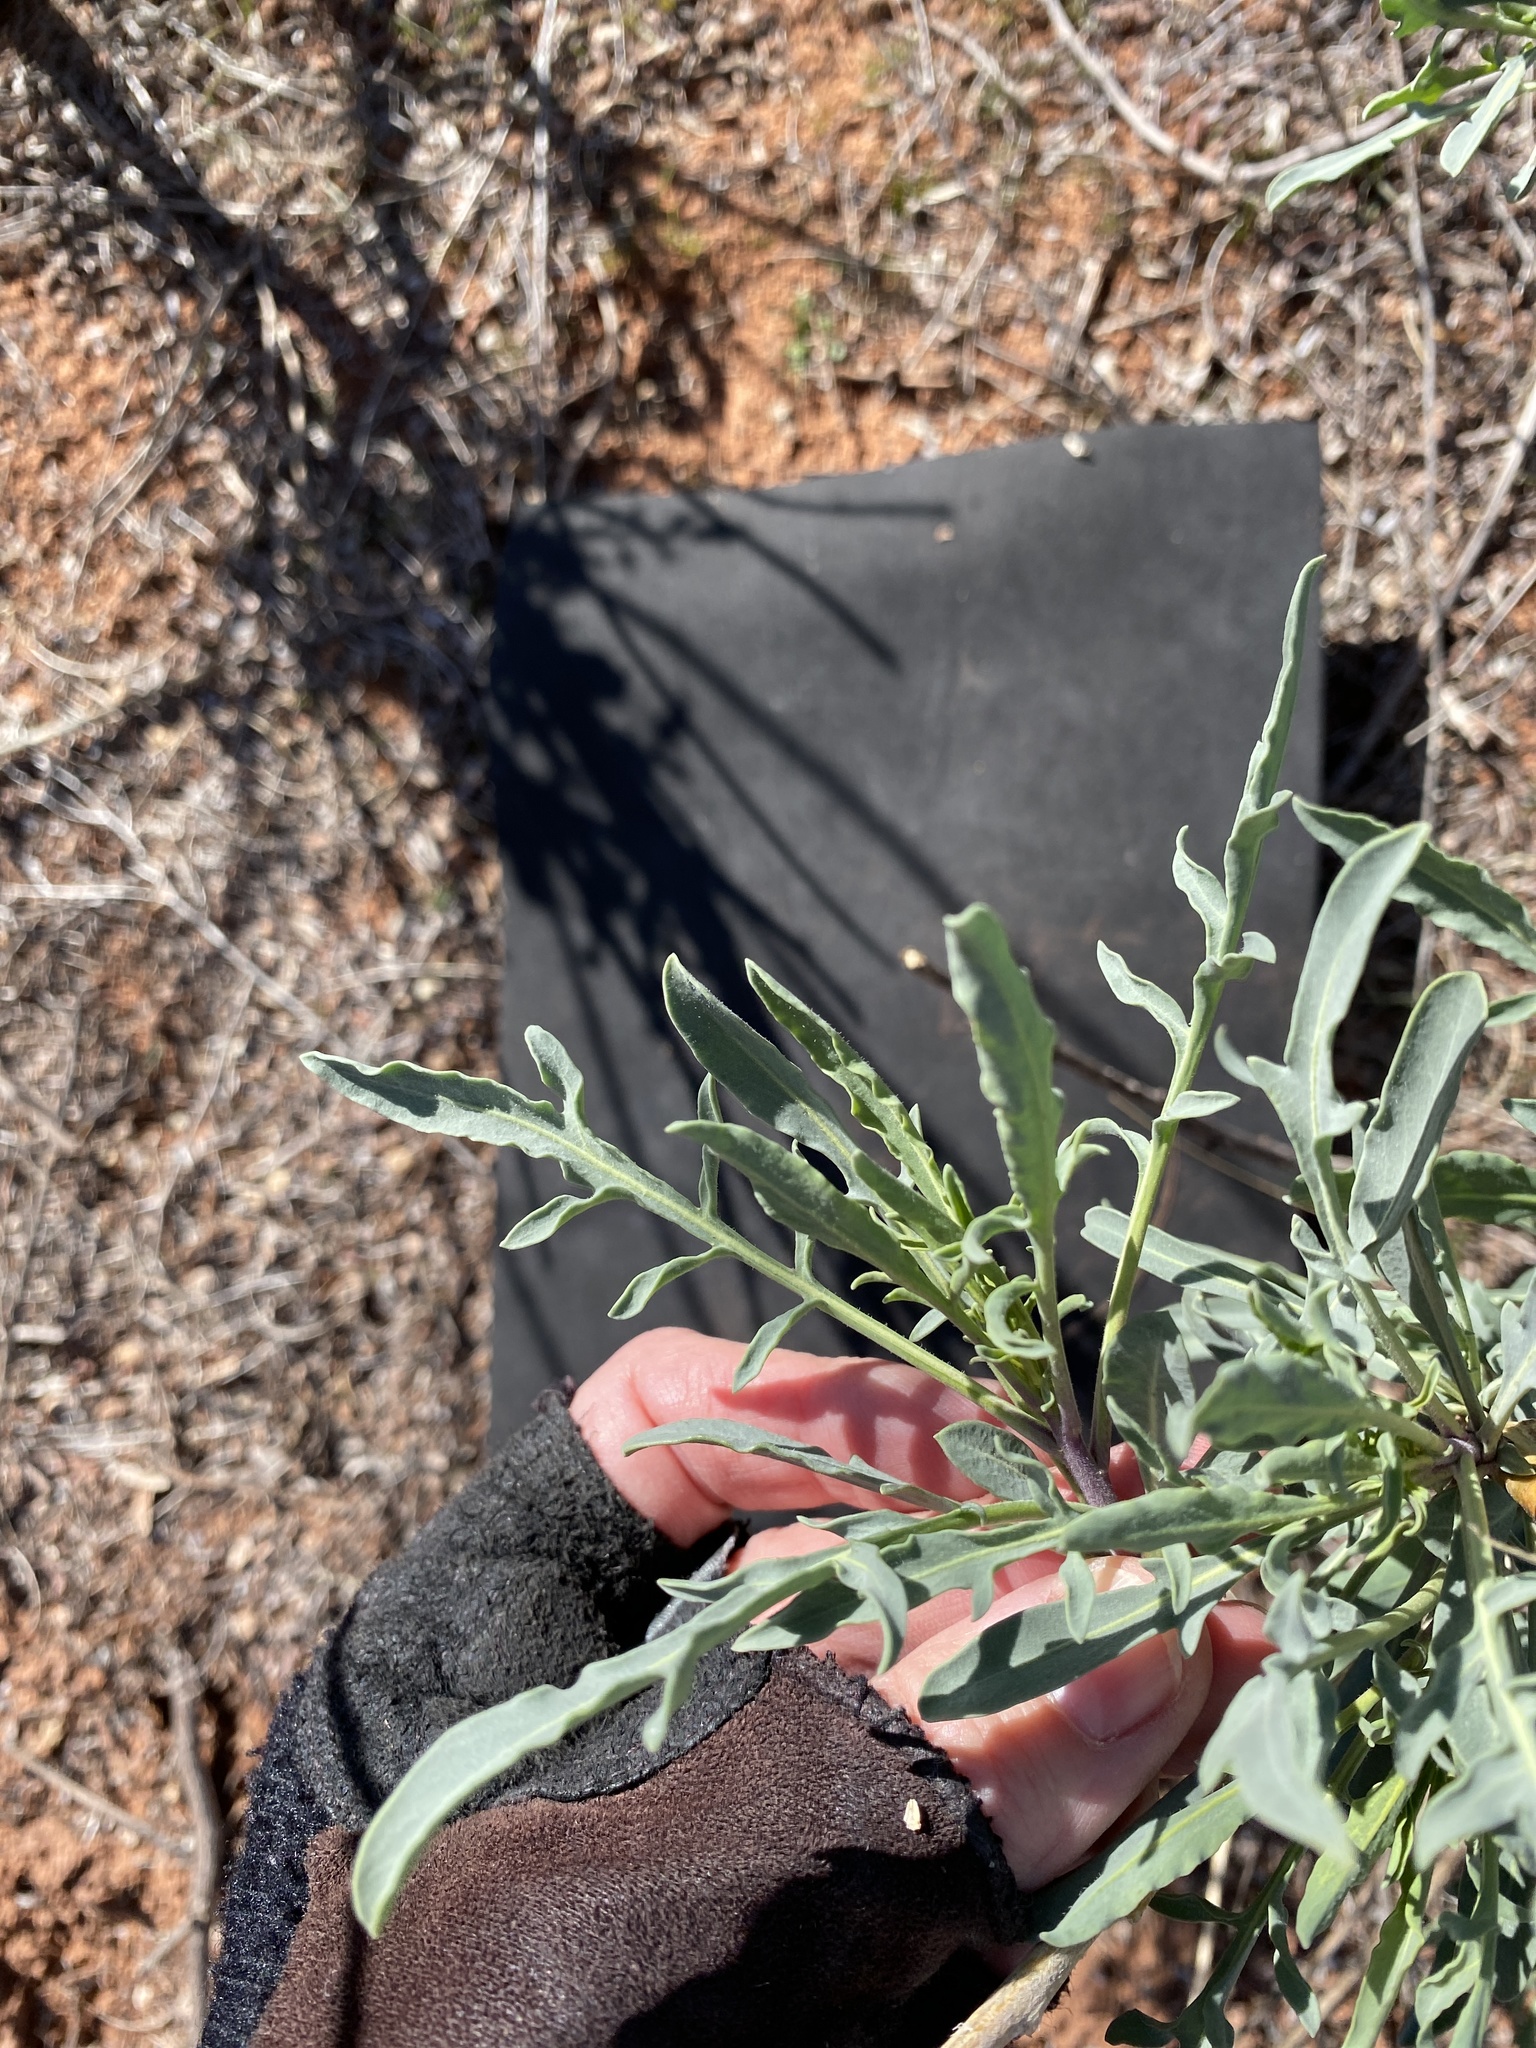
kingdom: Plantae
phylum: Tracheophyta
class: Magnoliopsida
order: Brassicales
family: Brassicaceae
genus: Stanleya
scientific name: Stanleya pinnata
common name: Prince's-plume
